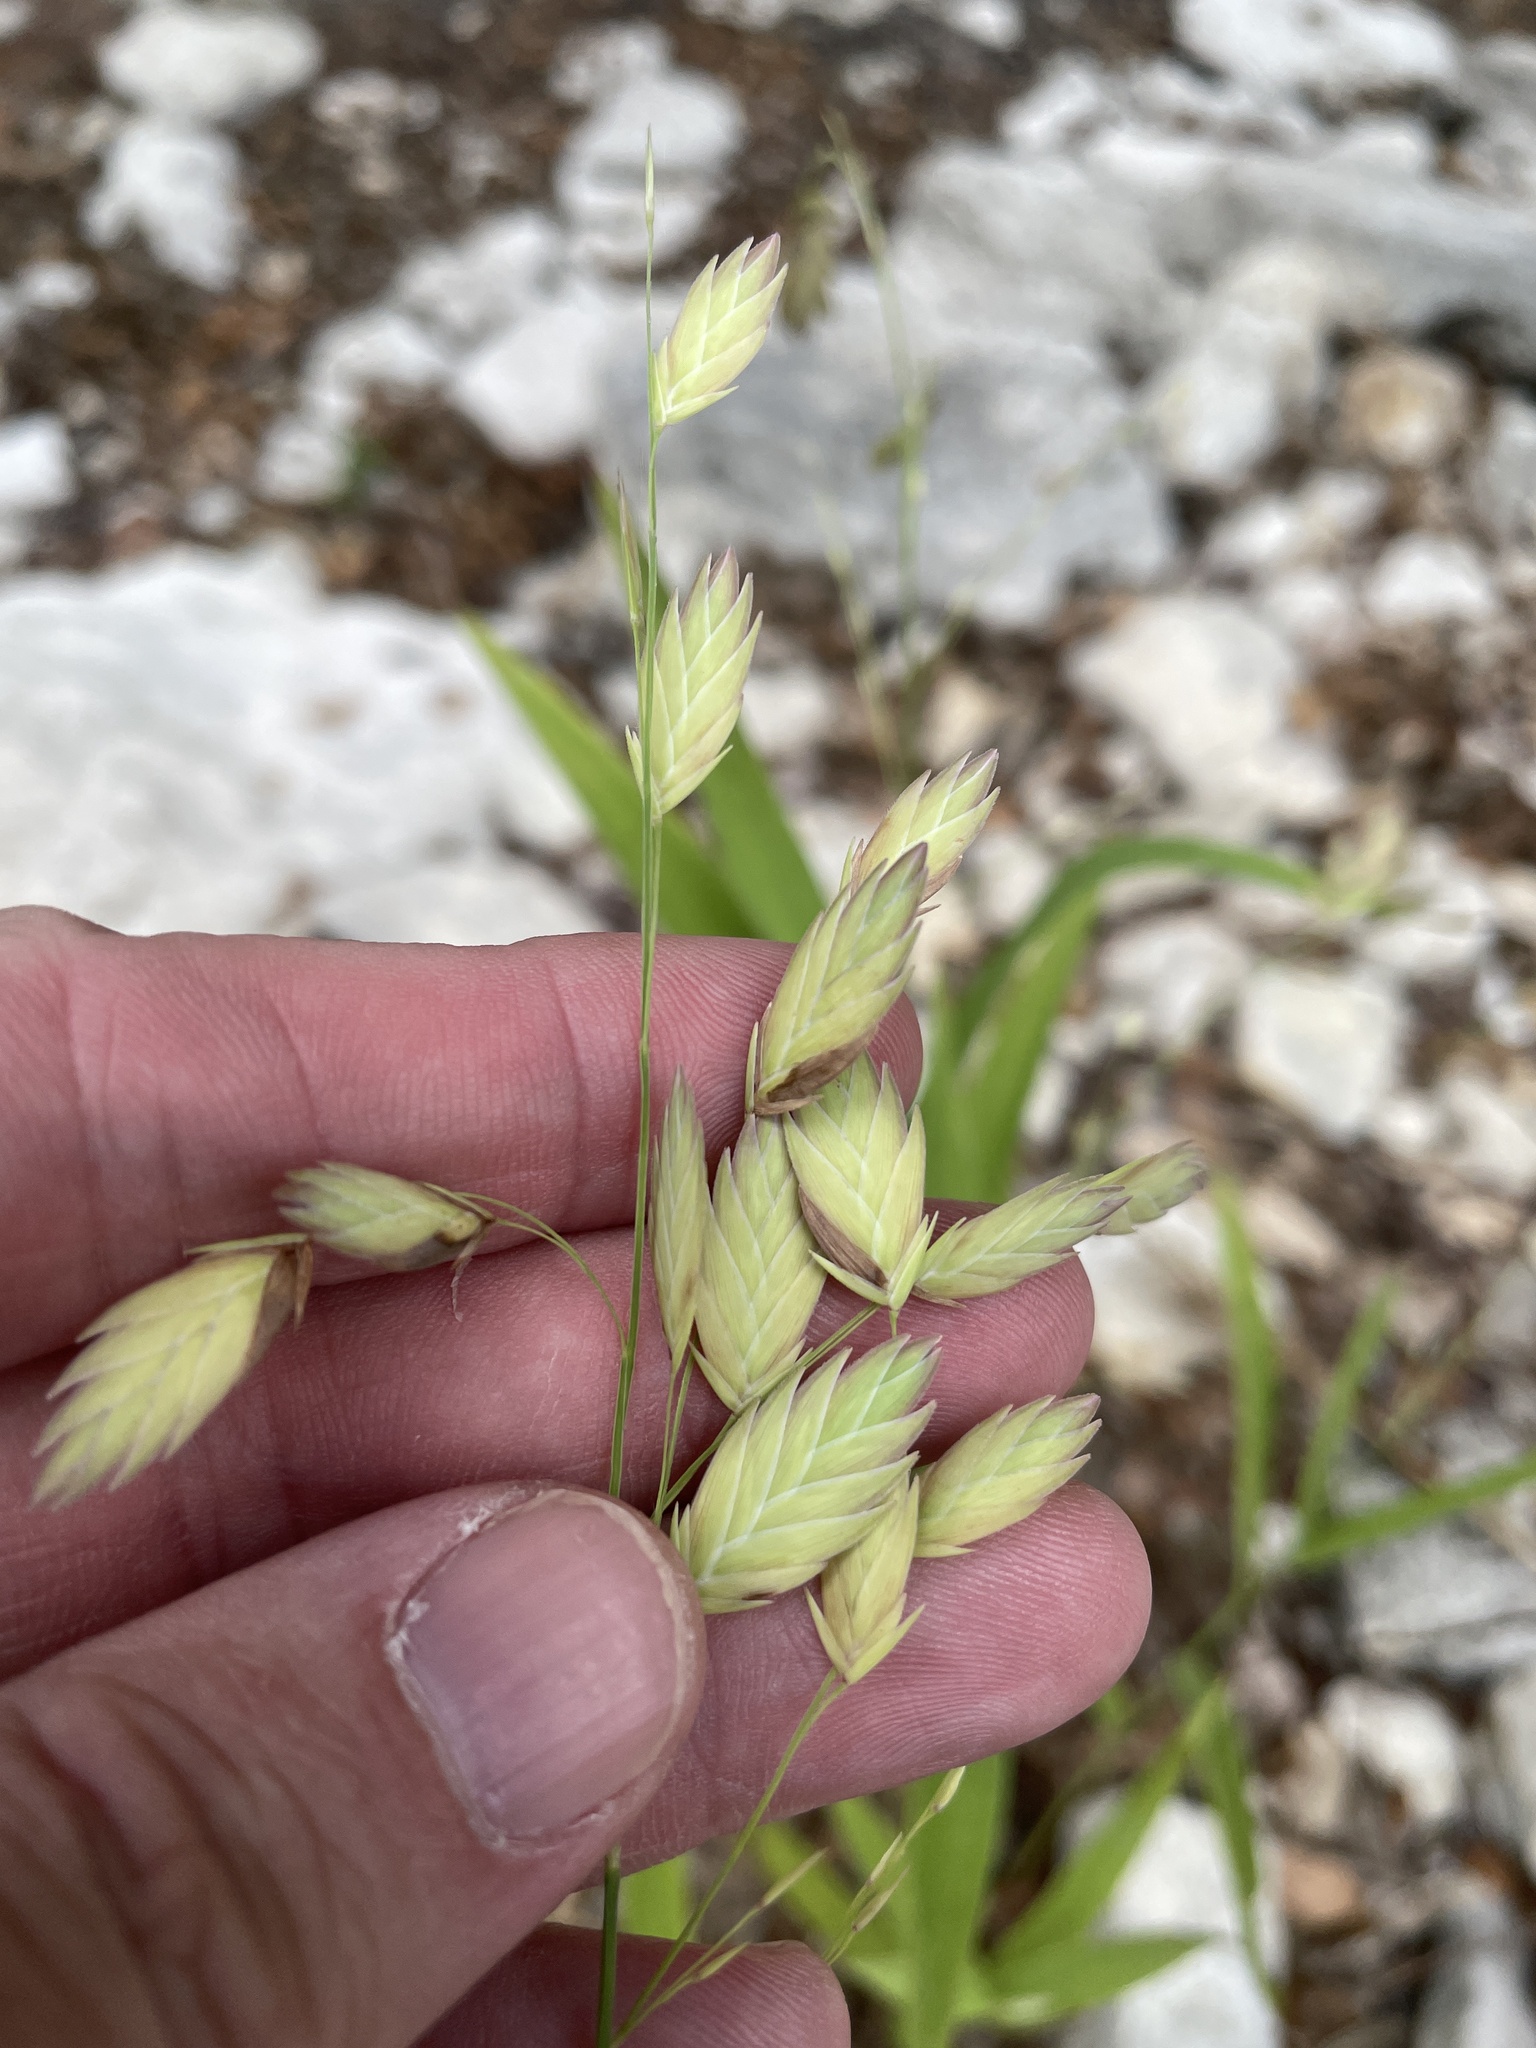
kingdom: Plantae
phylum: Tracheophyta
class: Liliopsida
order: Poales
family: Poaceae
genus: Chasmanthium
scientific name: Chasmanthium latifolium
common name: Broad-leaved chasmanthium
